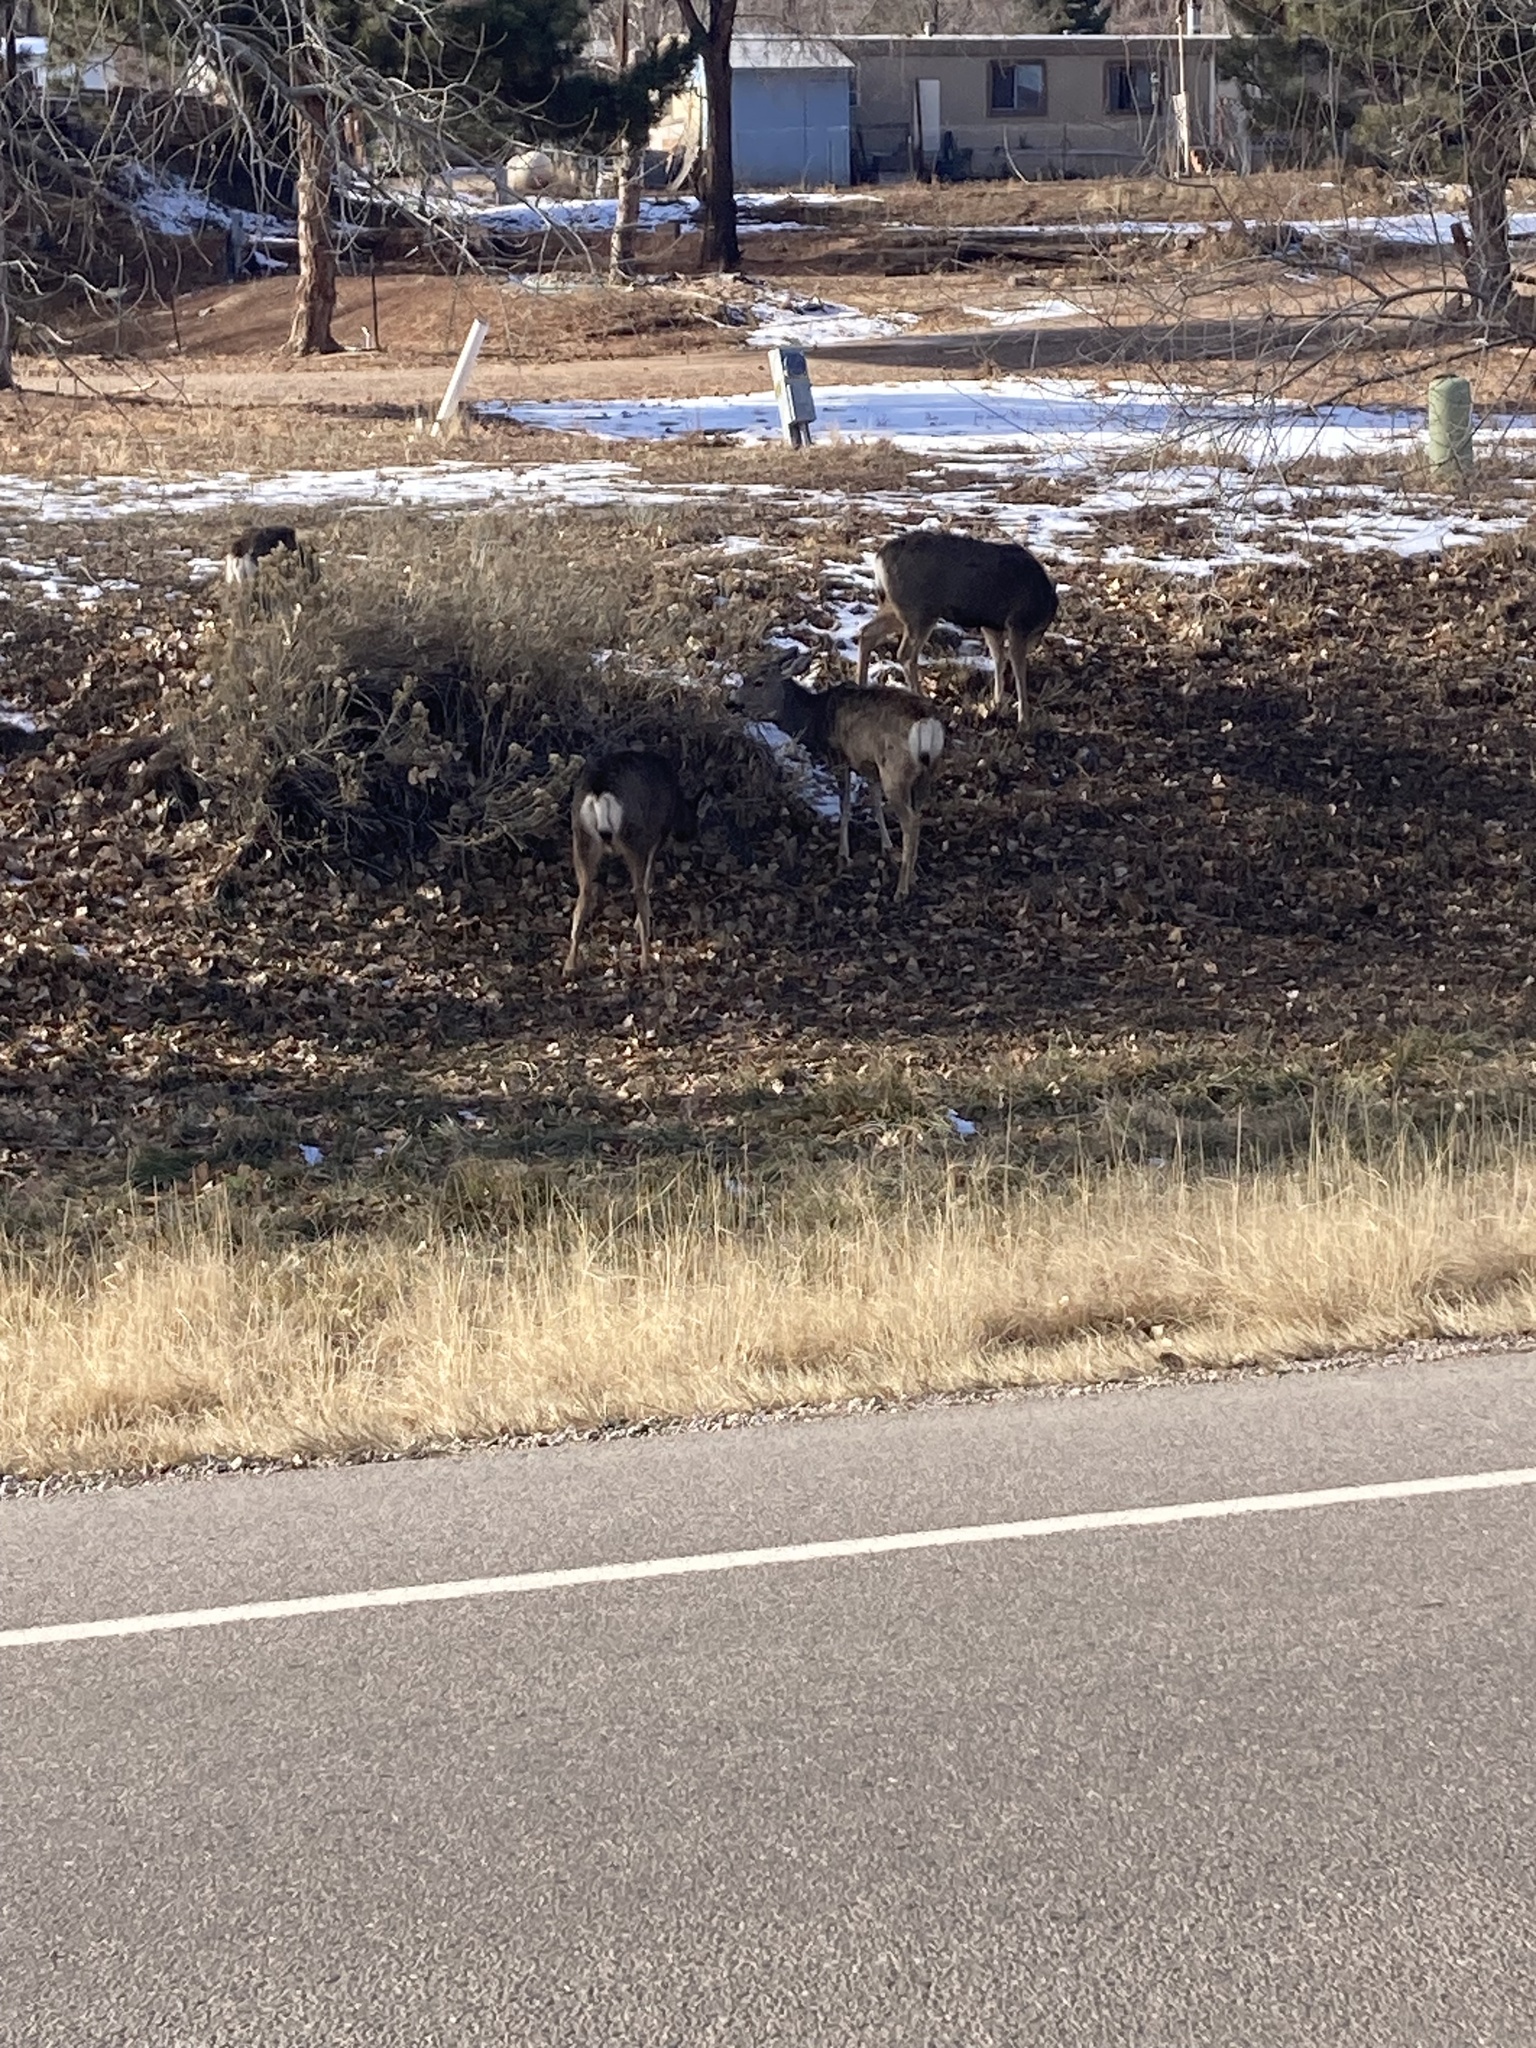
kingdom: Animalia
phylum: Chordata
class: Mammalia
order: Artiodactyla
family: Cervidae
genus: Odocoileus
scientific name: Odocoileus hemionus
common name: Mule deer
